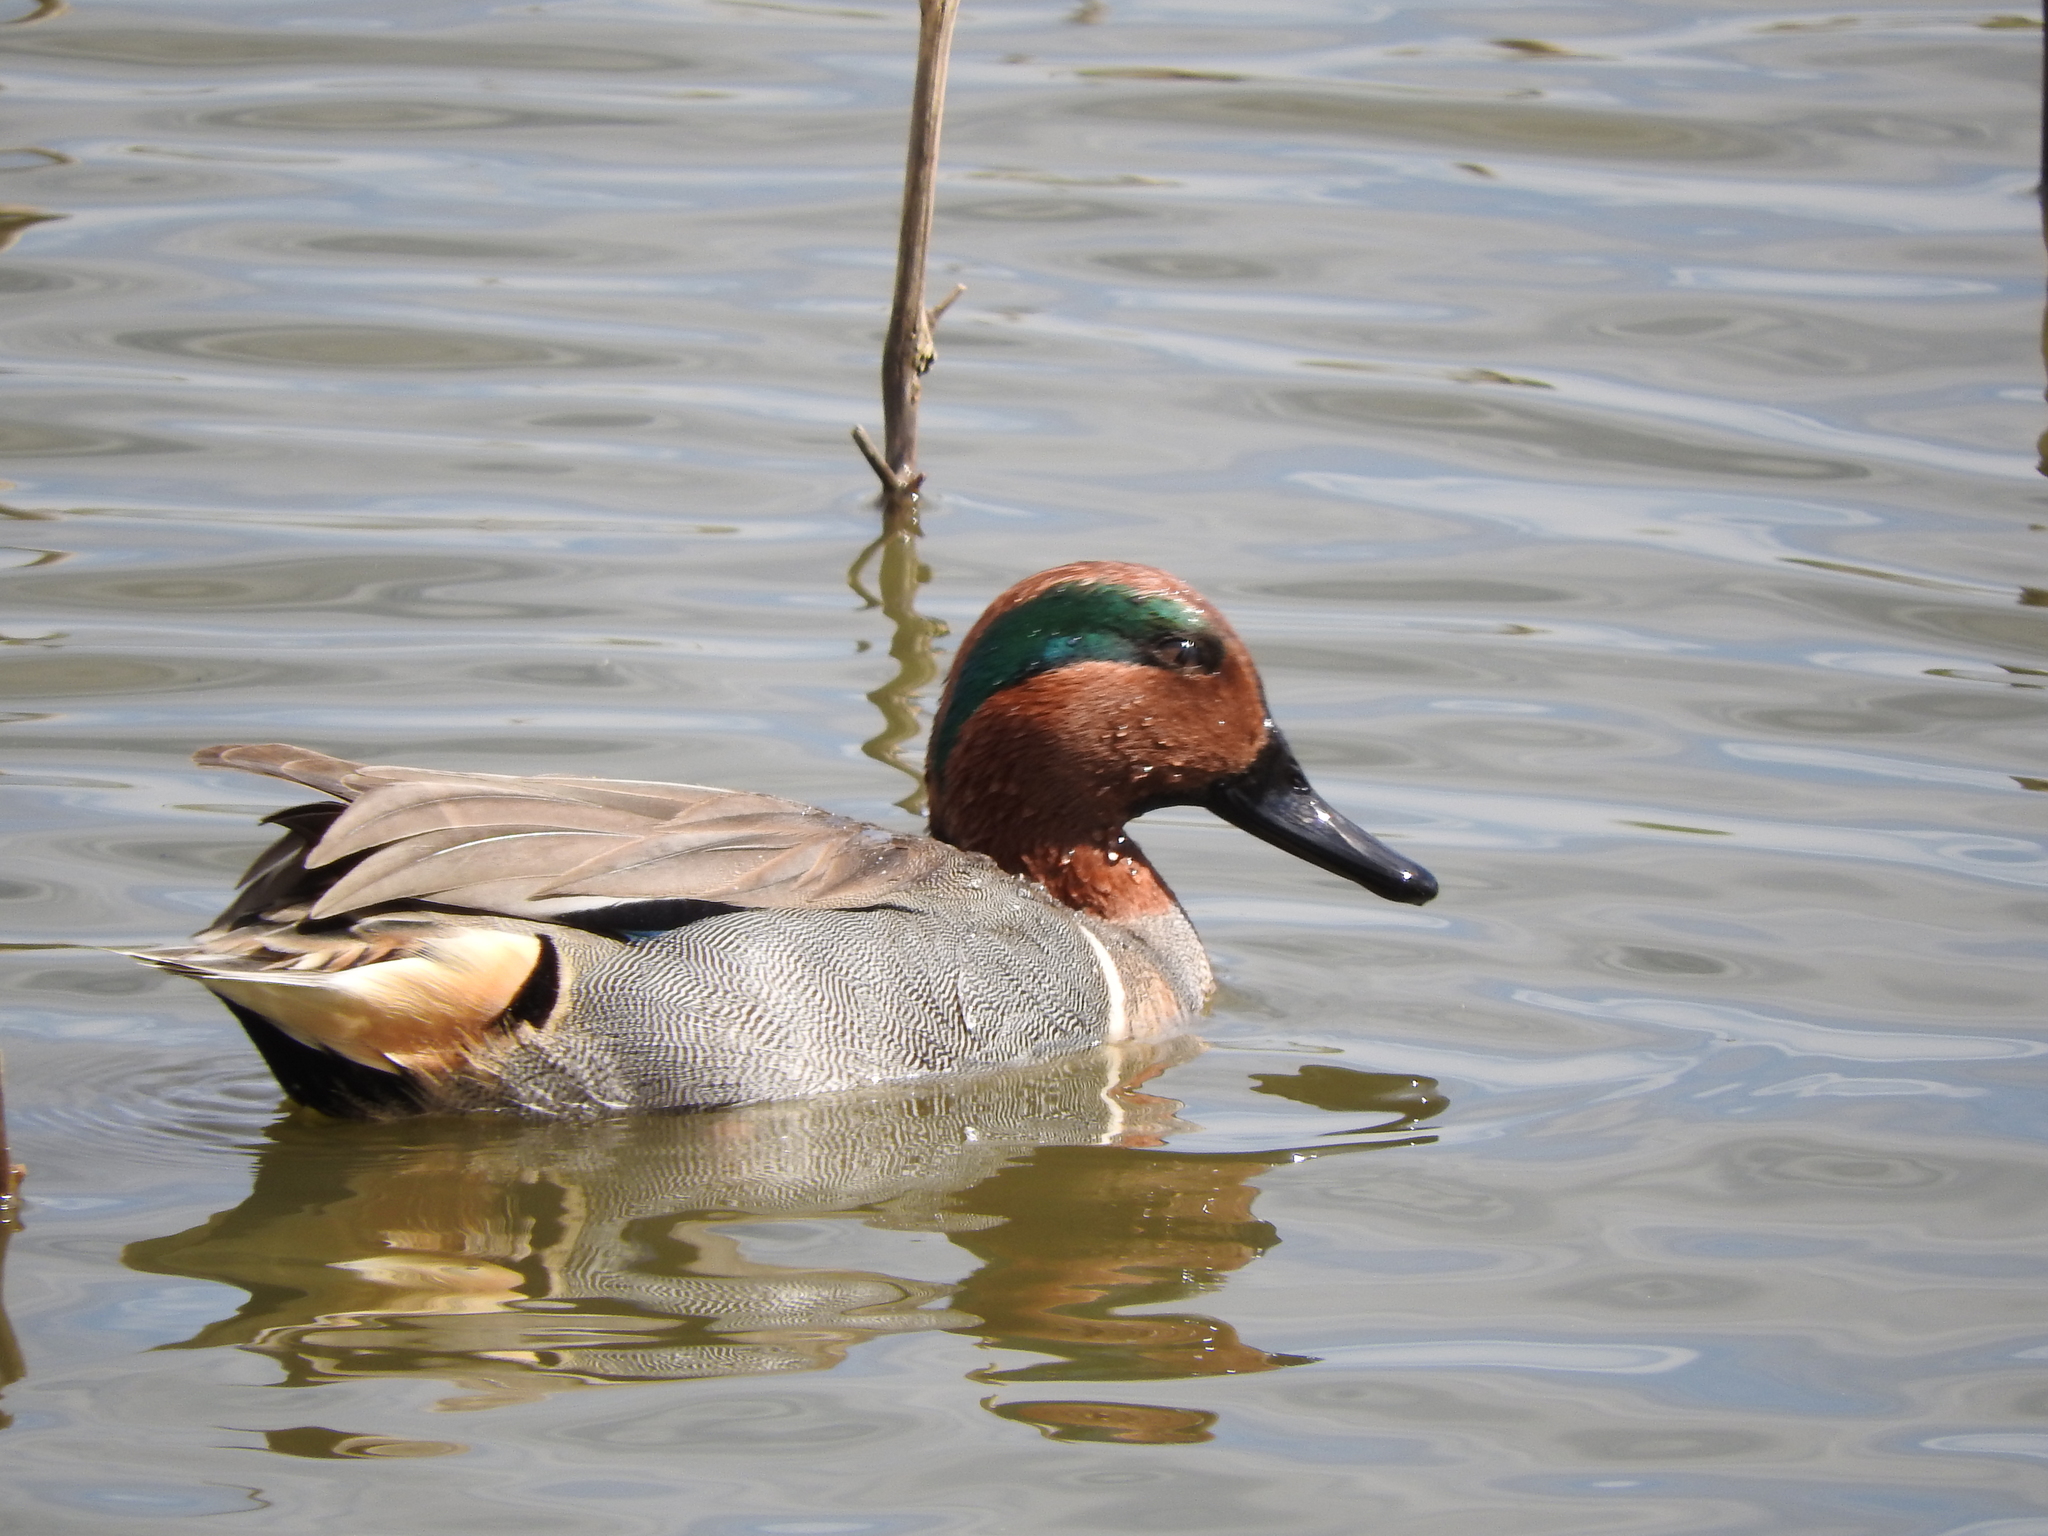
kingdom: Animalia
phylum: Chordata
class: Aves
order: Anseriformes
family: Anatidae
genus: Anas
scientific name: Anas crecca
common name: Eurasian teal
